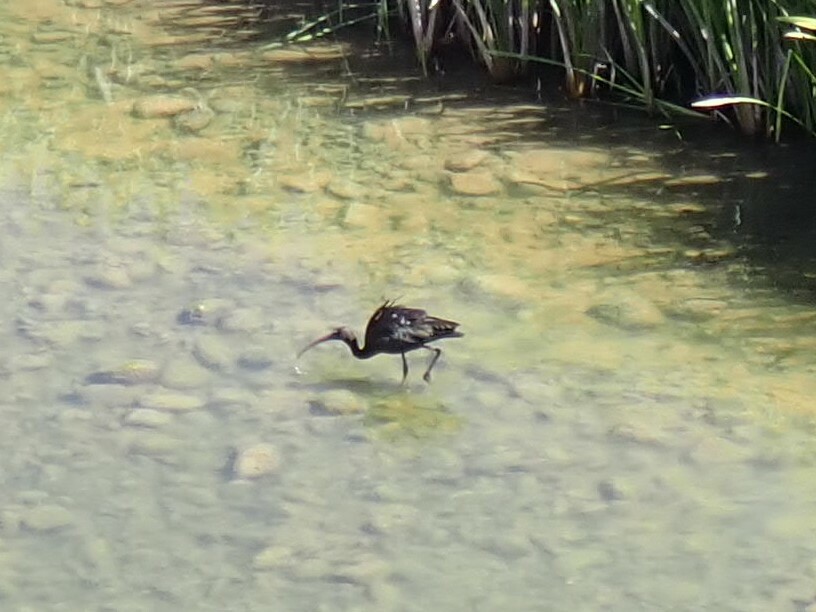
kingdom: Animalia
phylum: Chordata
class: Aves
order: Pelecaniformes
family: Threskiornithidae
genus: Plegadis
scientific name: Plegadis falcinellus
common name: Glossy ibis
